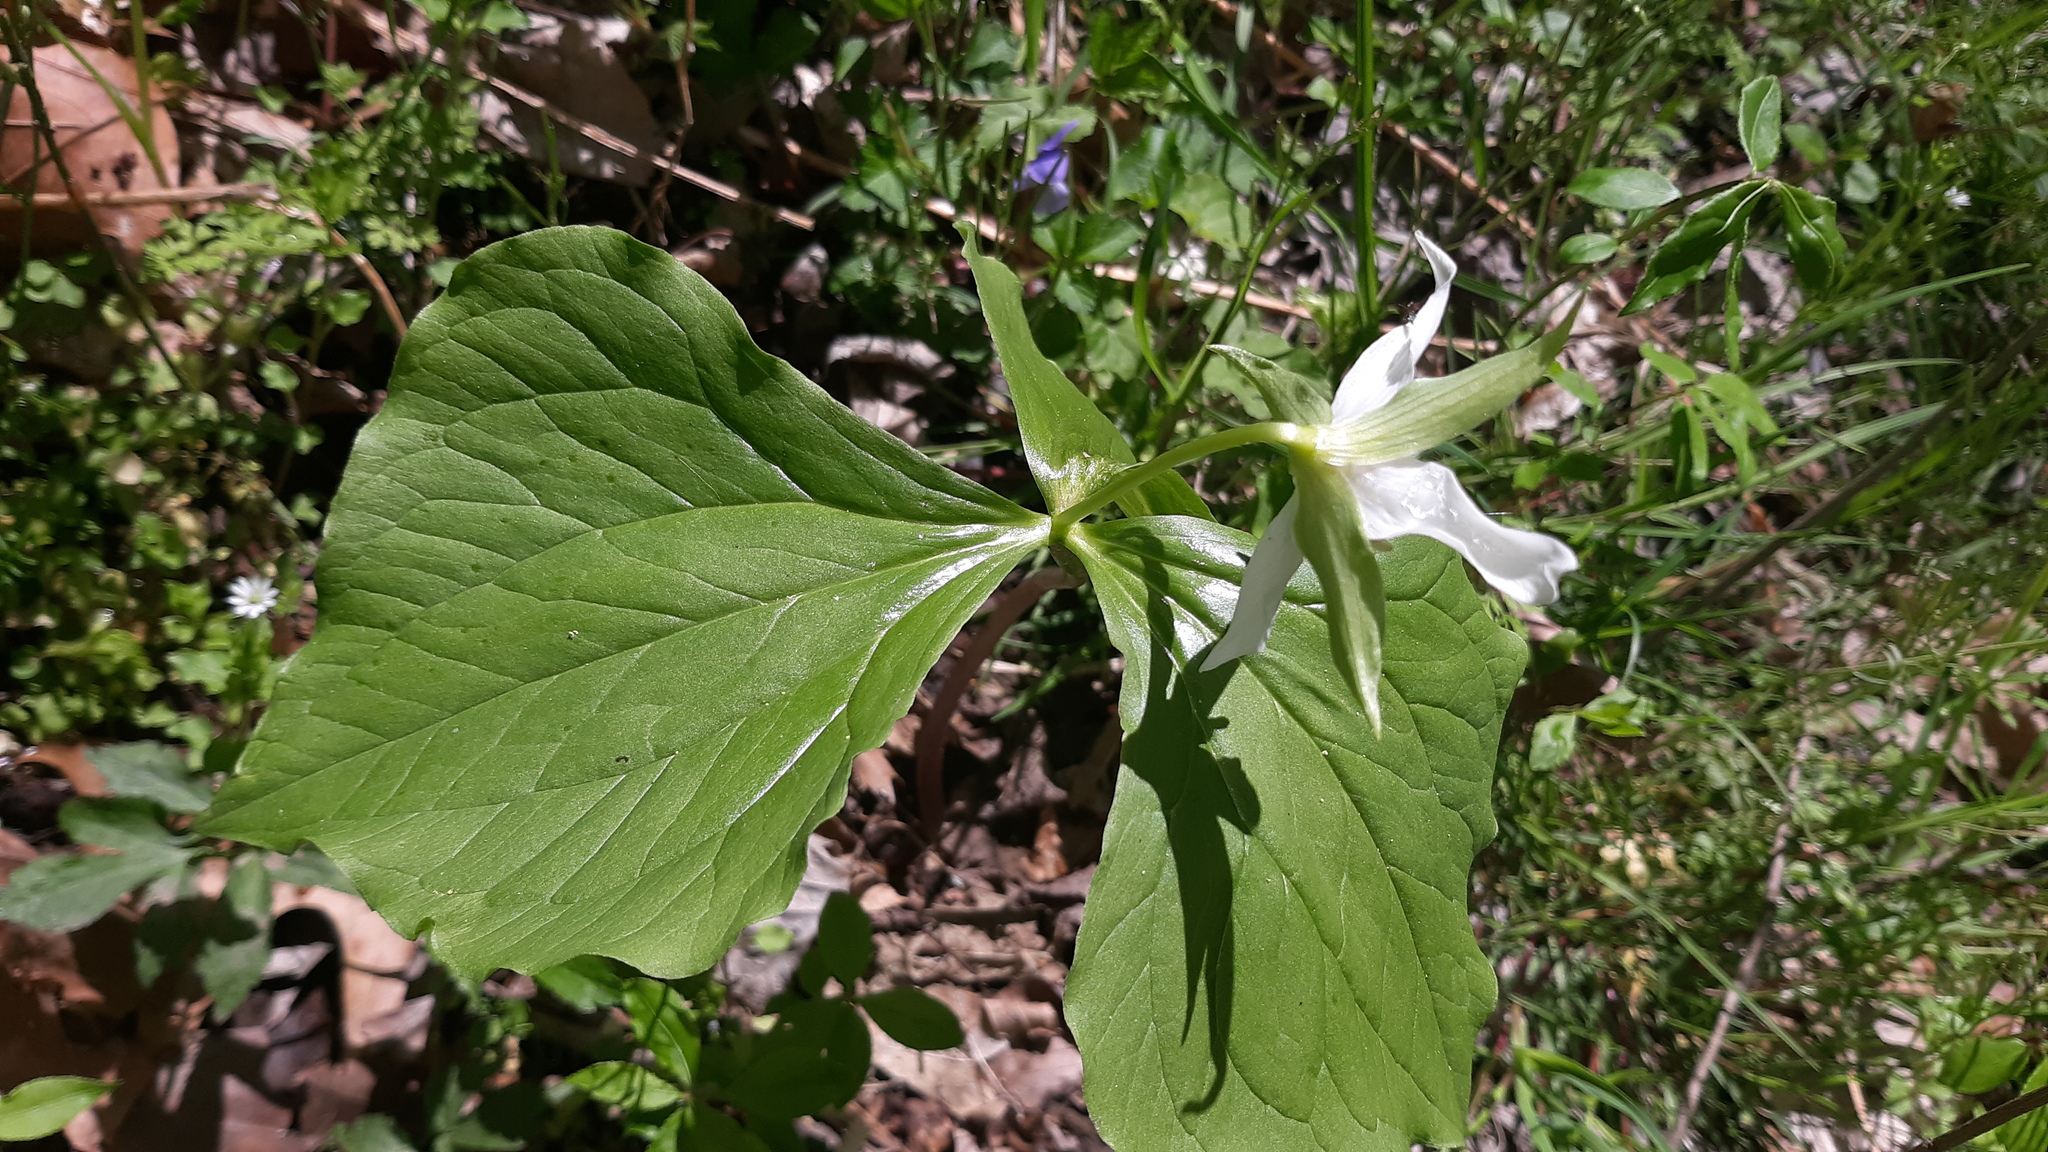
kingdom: Plantae
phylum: Tracheophyta
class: Liliopsida
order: Liliales
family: Melanthiaceae
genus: Trillium
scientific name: Trillium flexipes
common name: Drooping trillium
